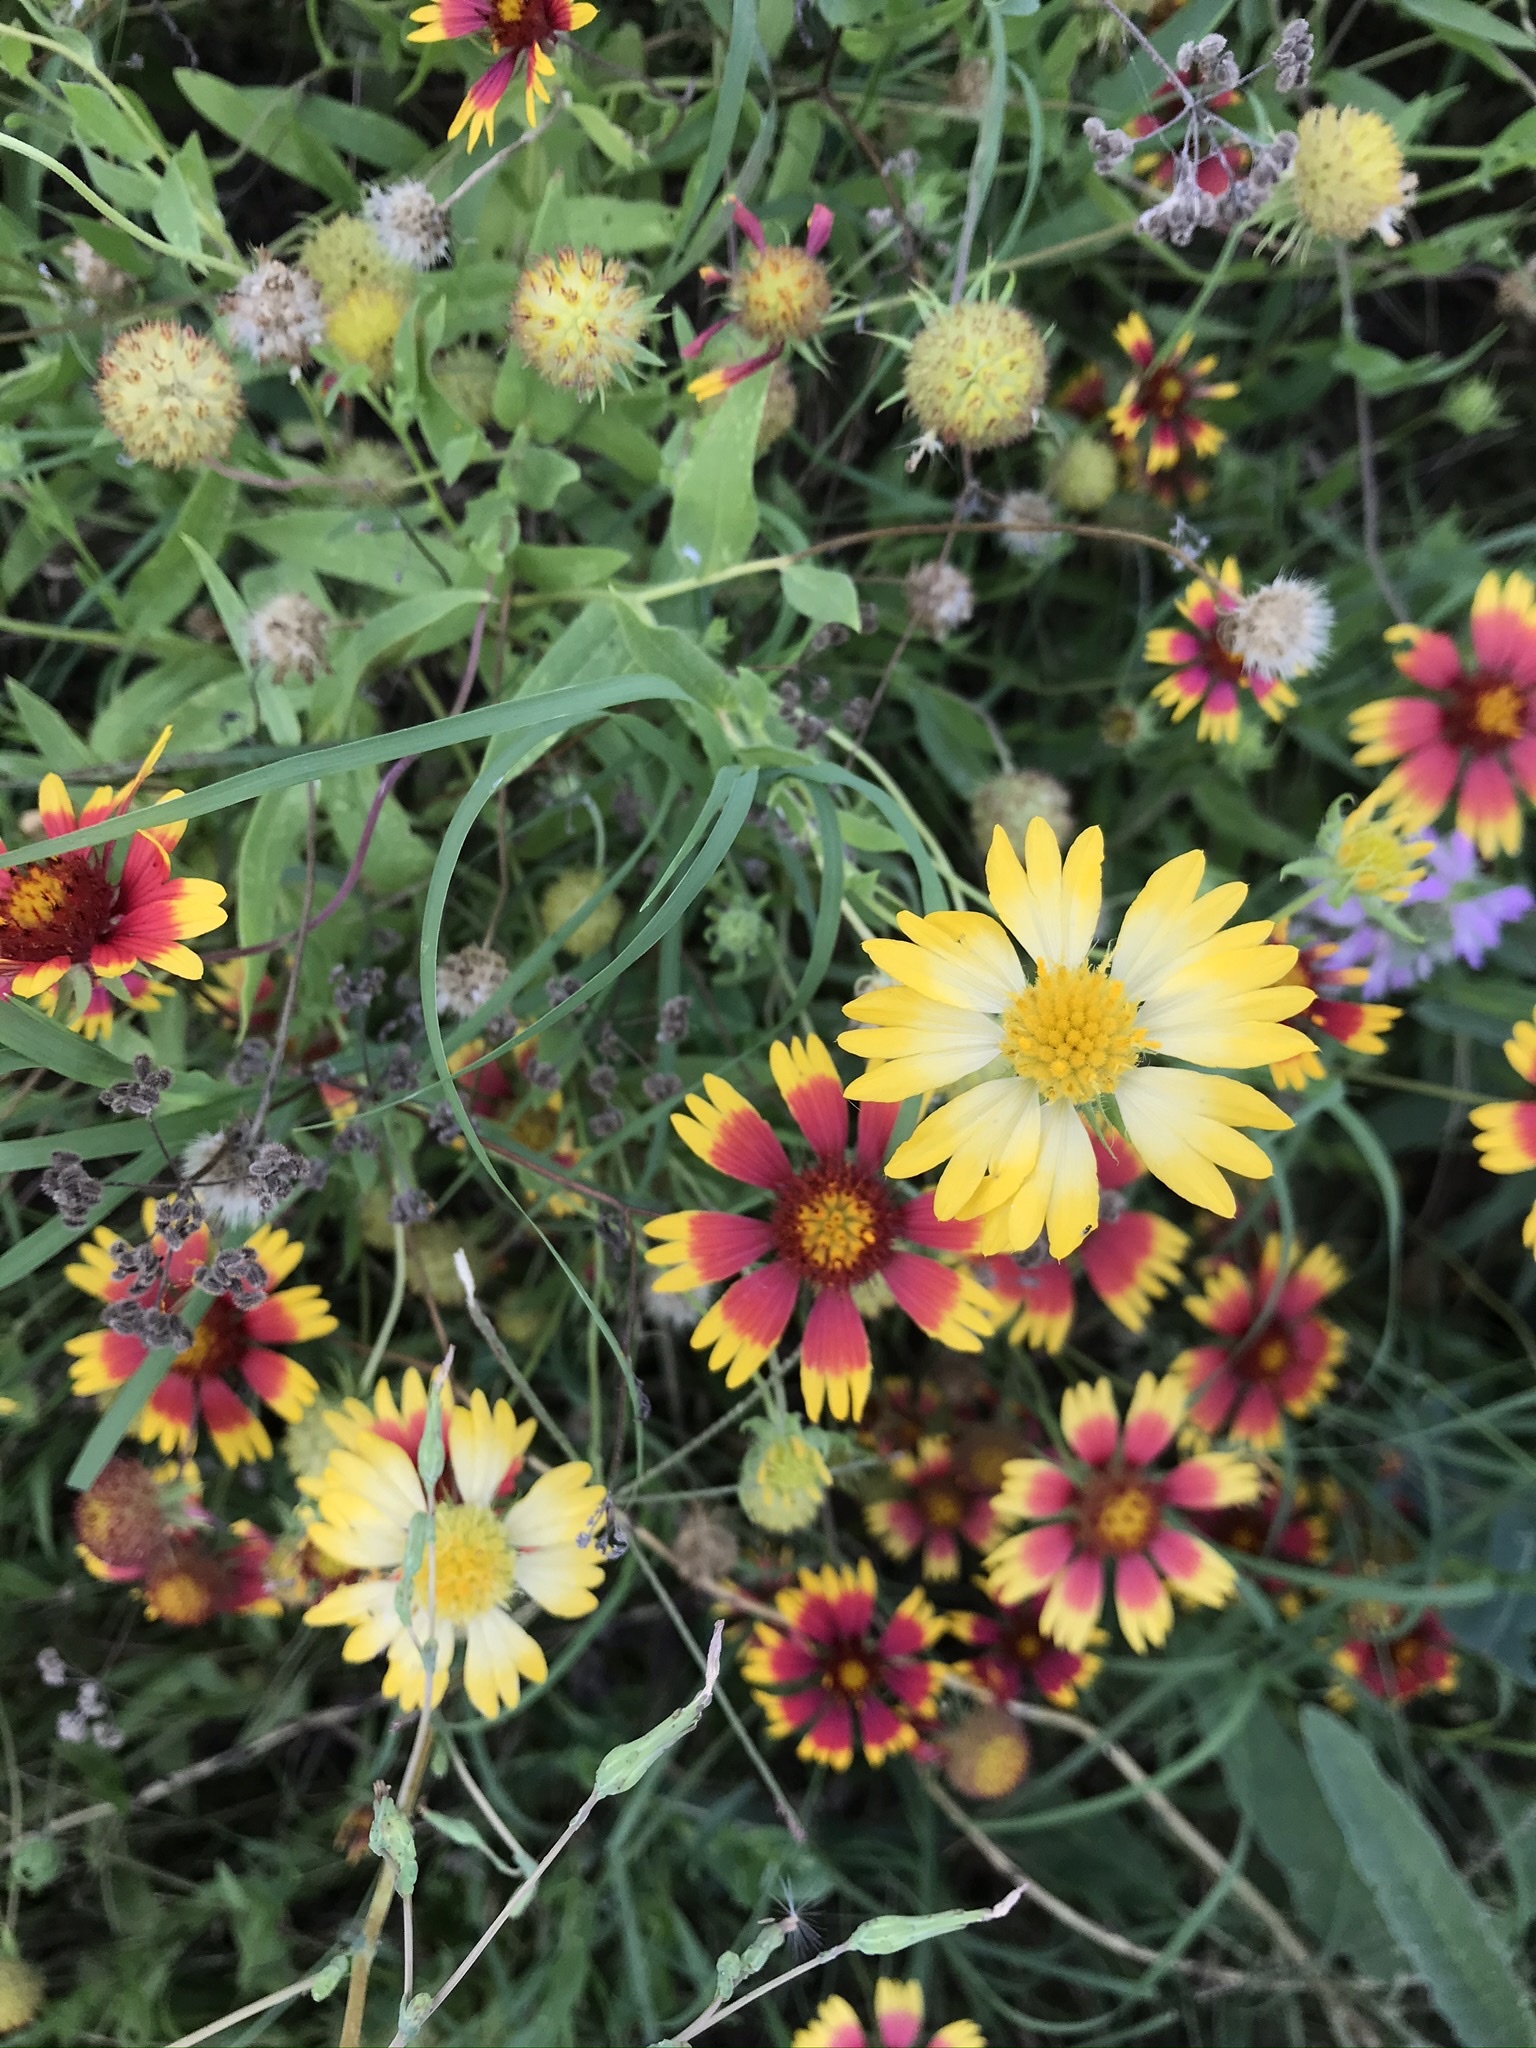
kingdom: Plantae
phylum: Tracheophyta
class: Magnoliopsida
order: Asterales
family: Asteraceae
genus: Gaillardia
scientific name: Gaillardia pulchella
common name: Firewheel
